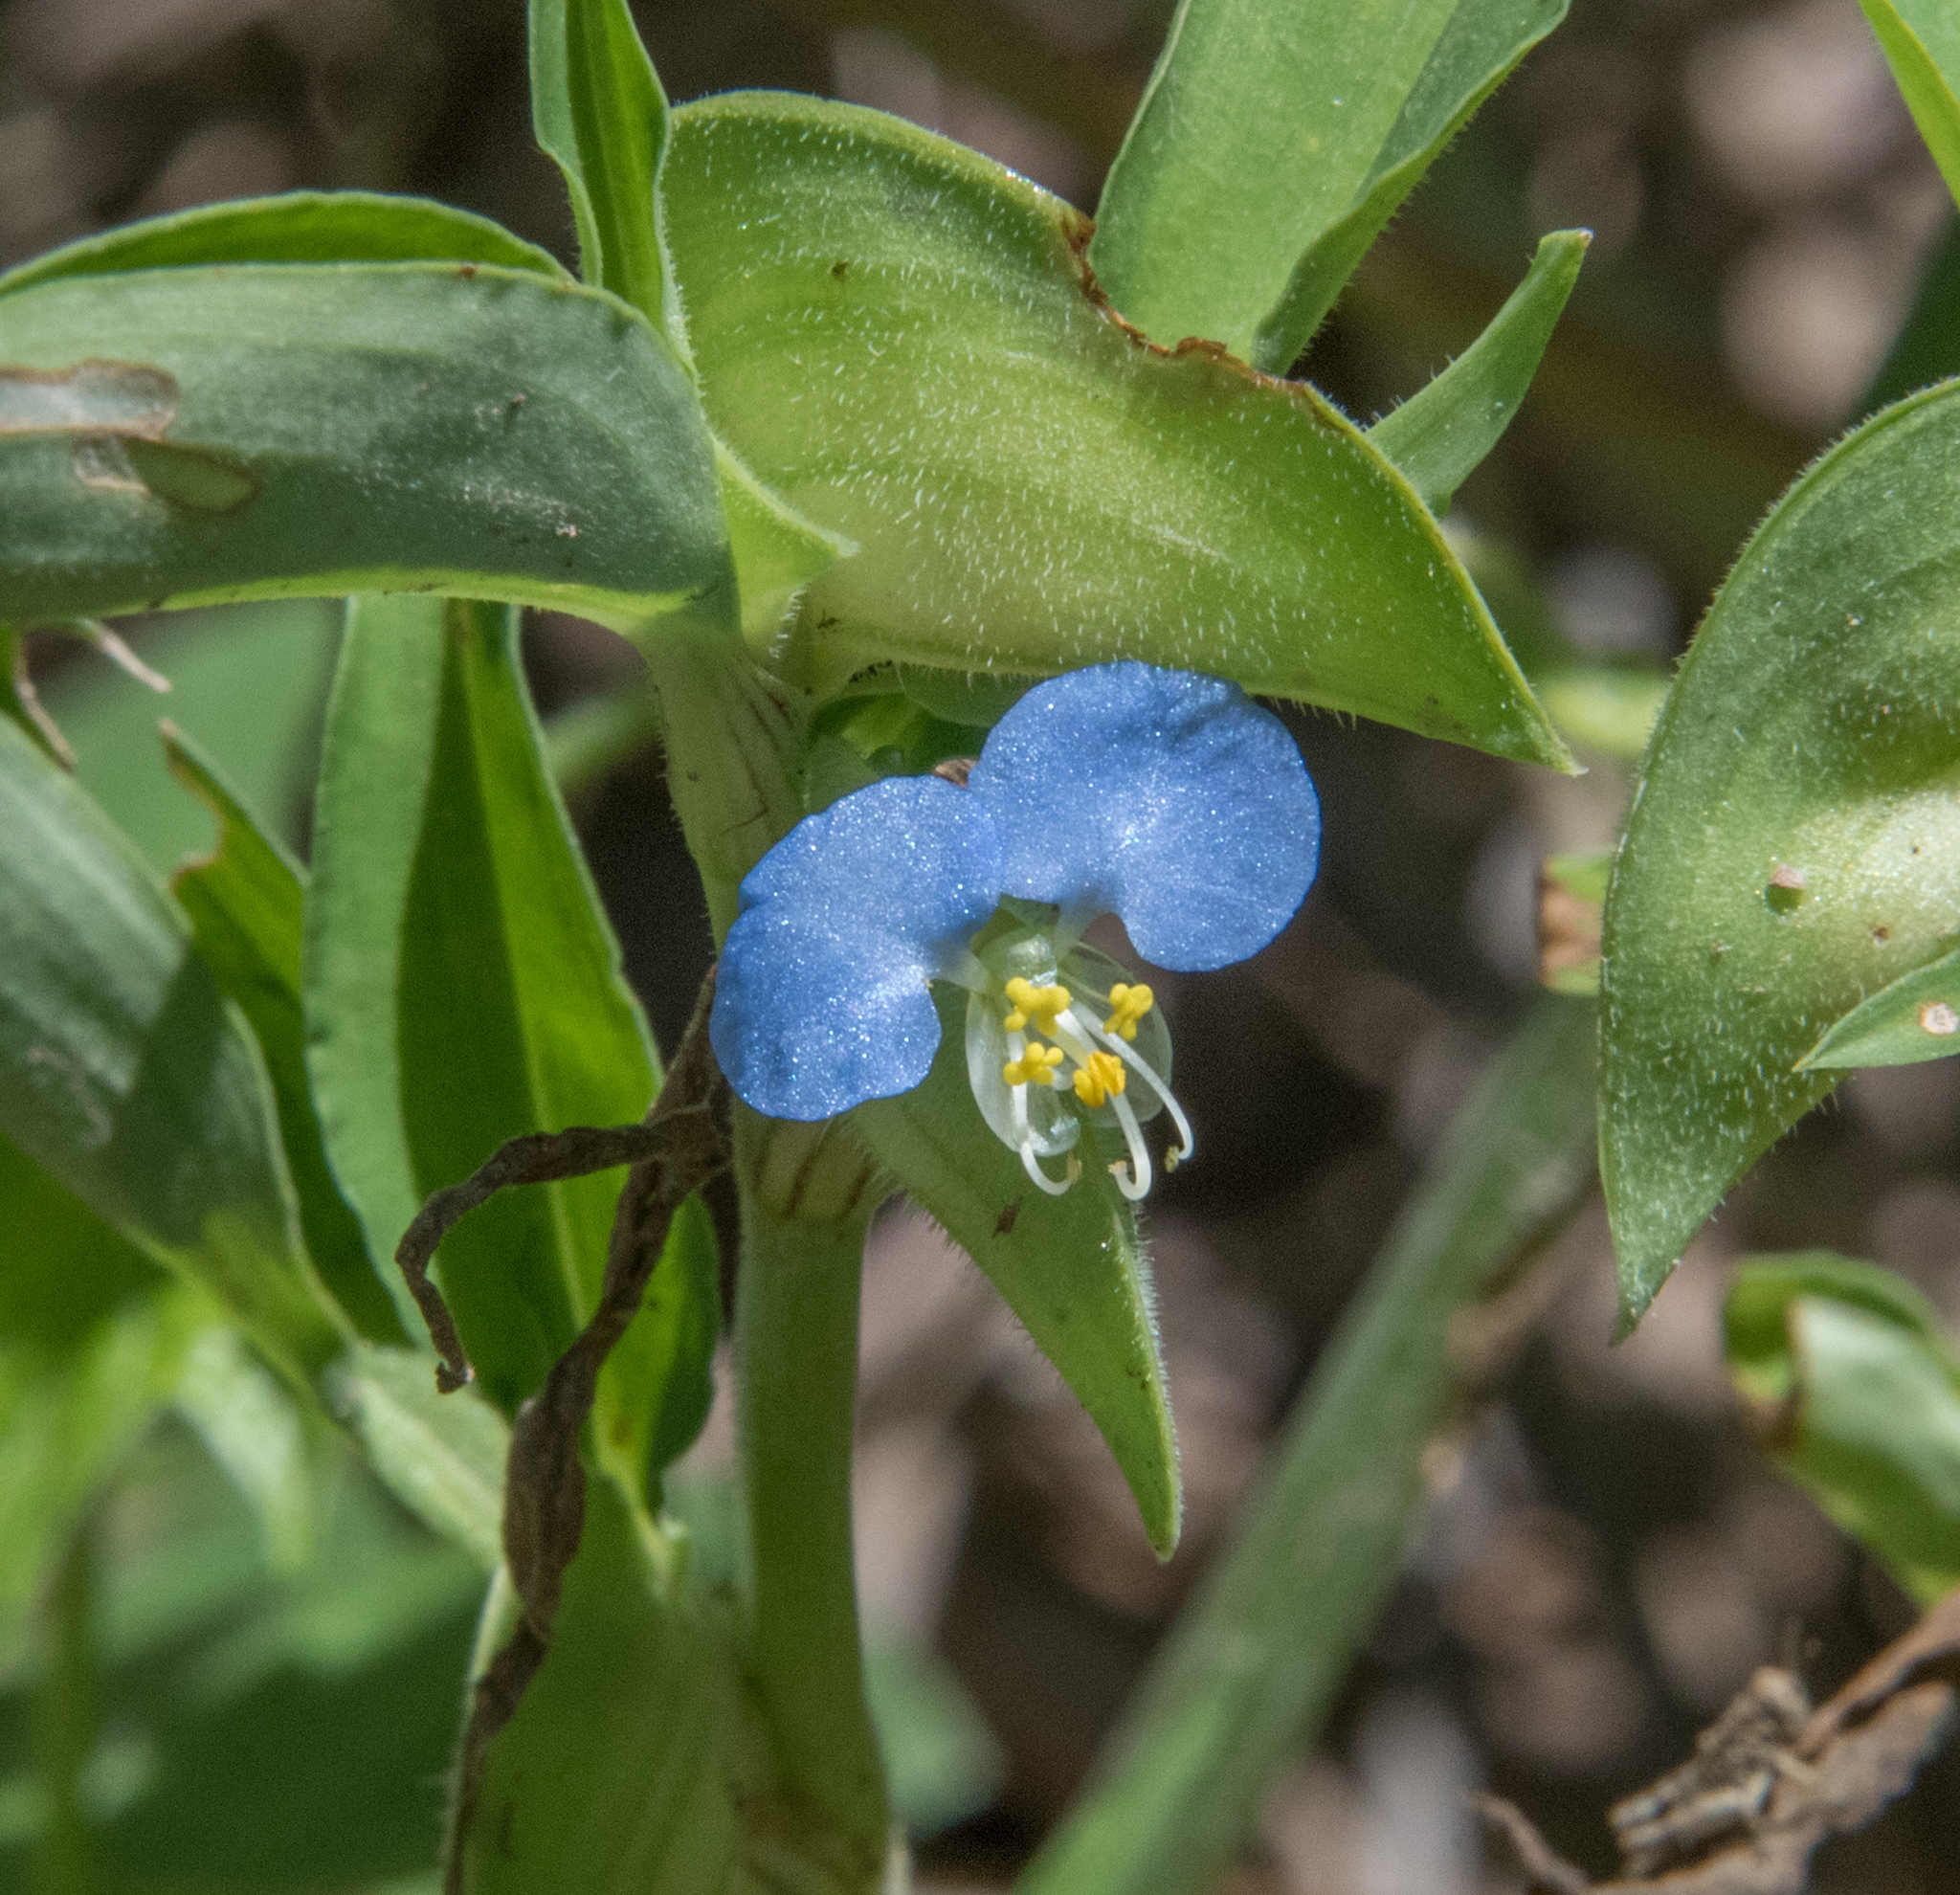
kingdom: Plantae
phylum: Tracheophyta
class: Liliopsida
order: Commelinales
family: Commelinaceae
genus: Commelina
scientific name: Commelina erecta
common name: Blousel blommetjie
